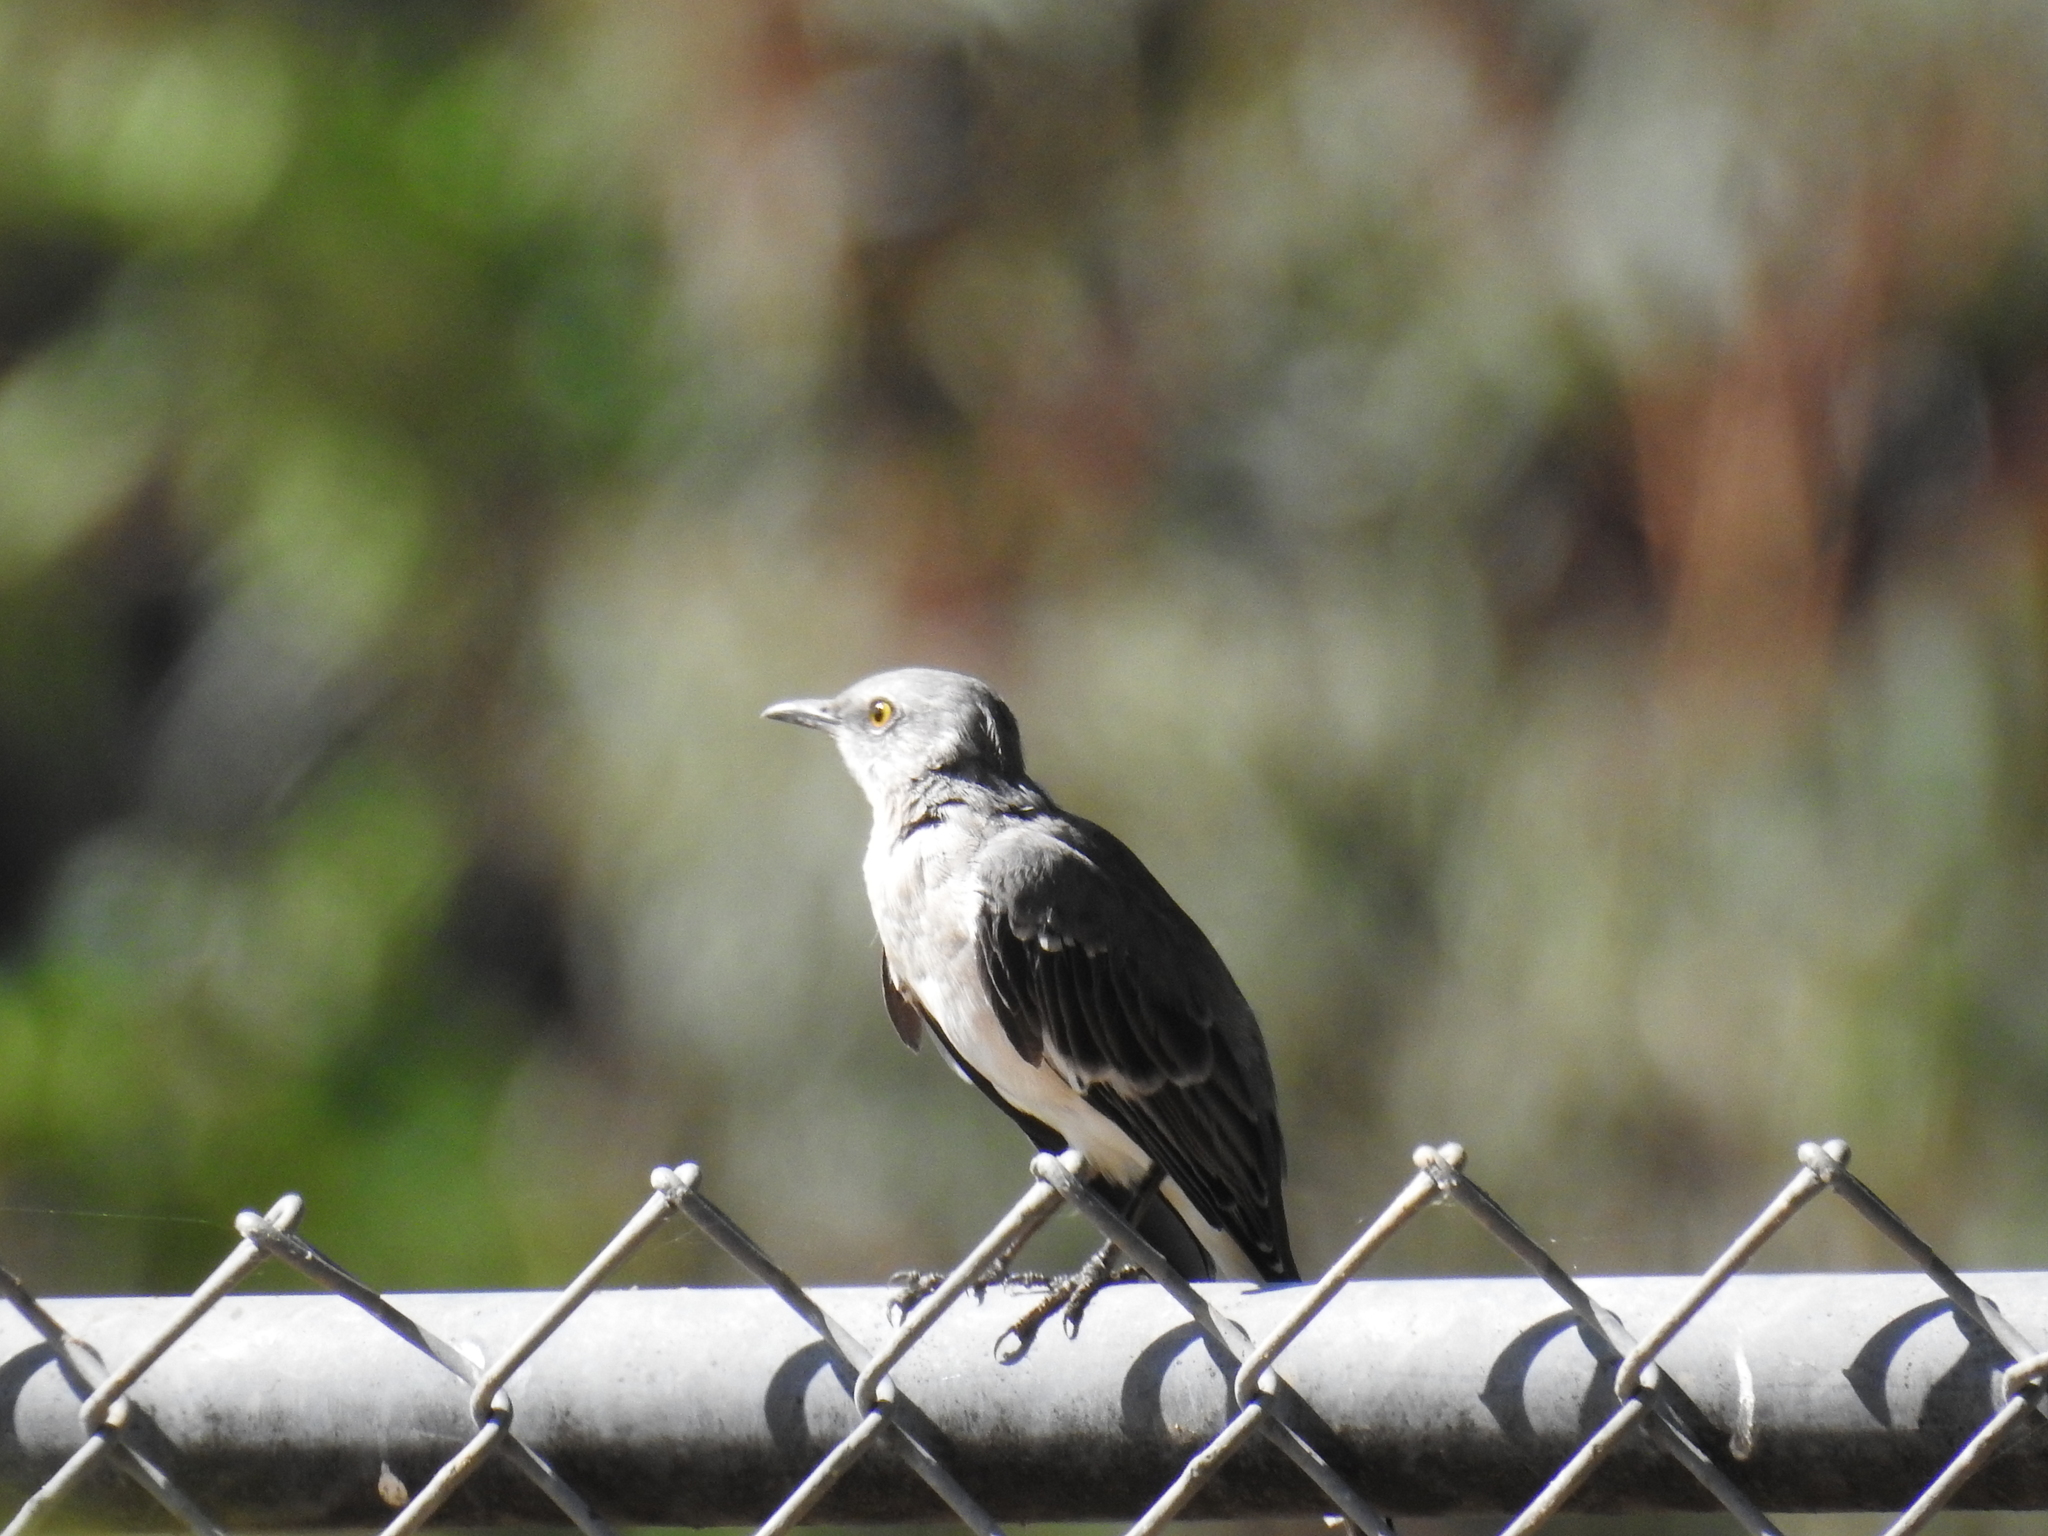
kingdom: Animalia
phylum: Chordata
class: Aves
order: Passeriformes
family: Mimidae
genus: Mimus
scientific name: Mimus polyglottos
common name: Northern mockingbird
